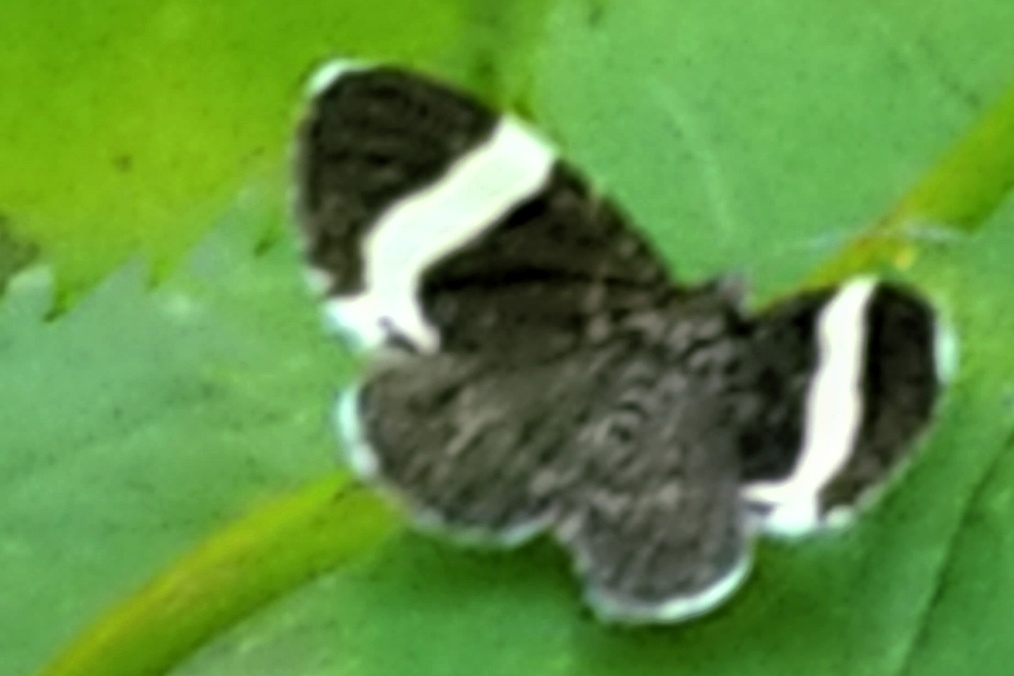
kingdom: Animalia
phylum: Arthropoda
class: Insecta
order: Lepidoptera
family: Geometridae
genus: Trichodezia
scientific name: Trichodezia albovittata
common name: White striped black
